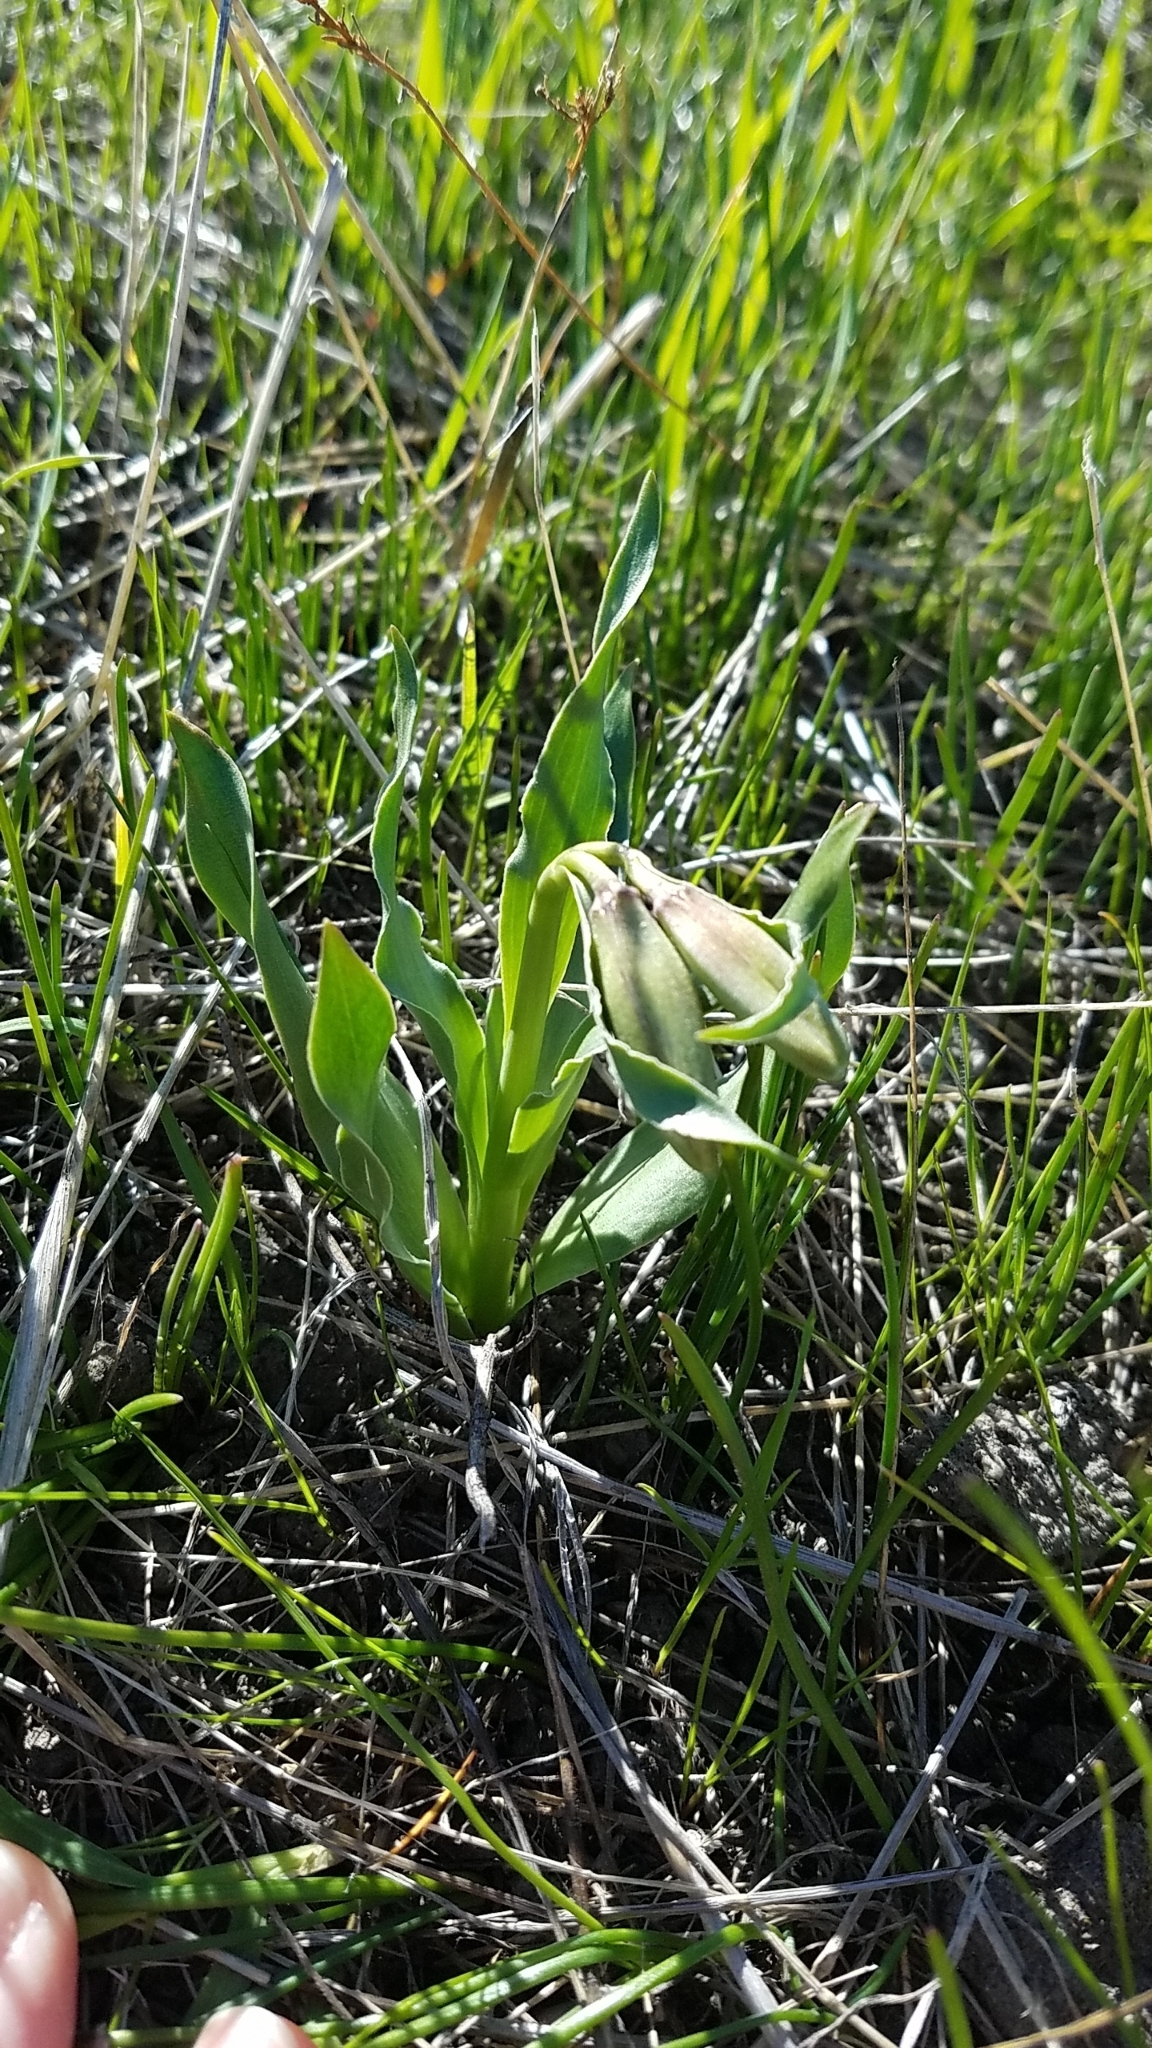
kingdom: Plantae
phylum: Tracheophyta
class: Liliopsida
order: Liliales
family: Liliaceae
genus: Fritillaria
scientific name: Fritillaria agrestis
